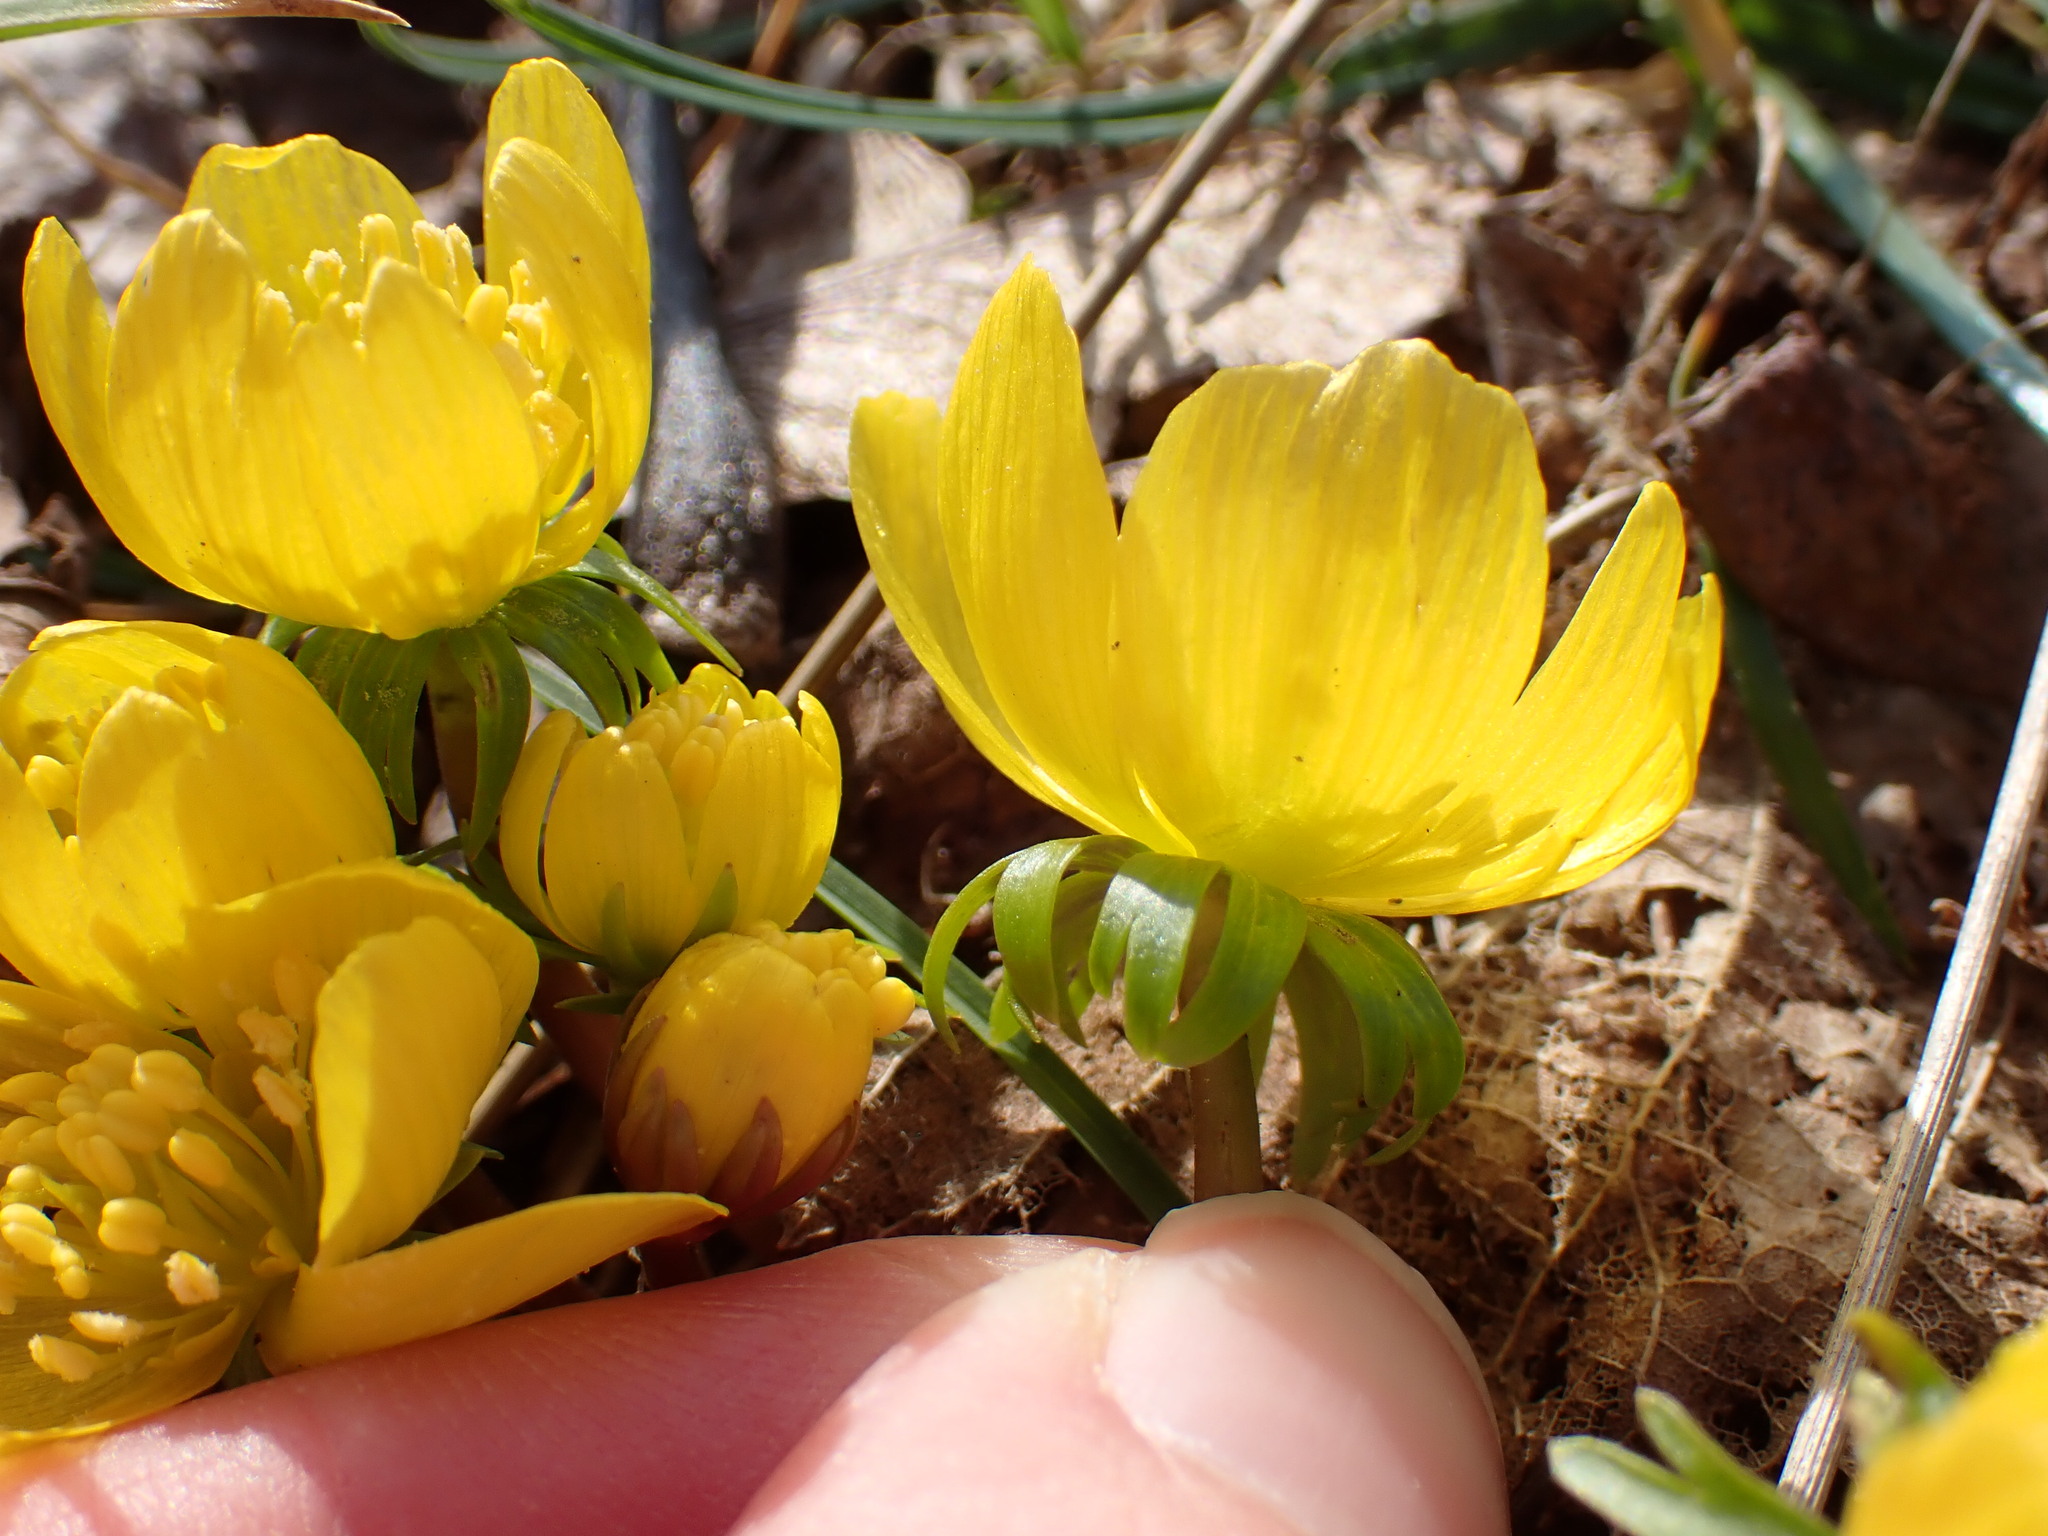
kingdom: Plantae
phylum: Tracheophyta
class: Magnoliopsida
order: Ranunculales
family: Ranunculaceae
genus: Eranthis
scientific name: Eranthis hyemalis
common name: Winter aconite
